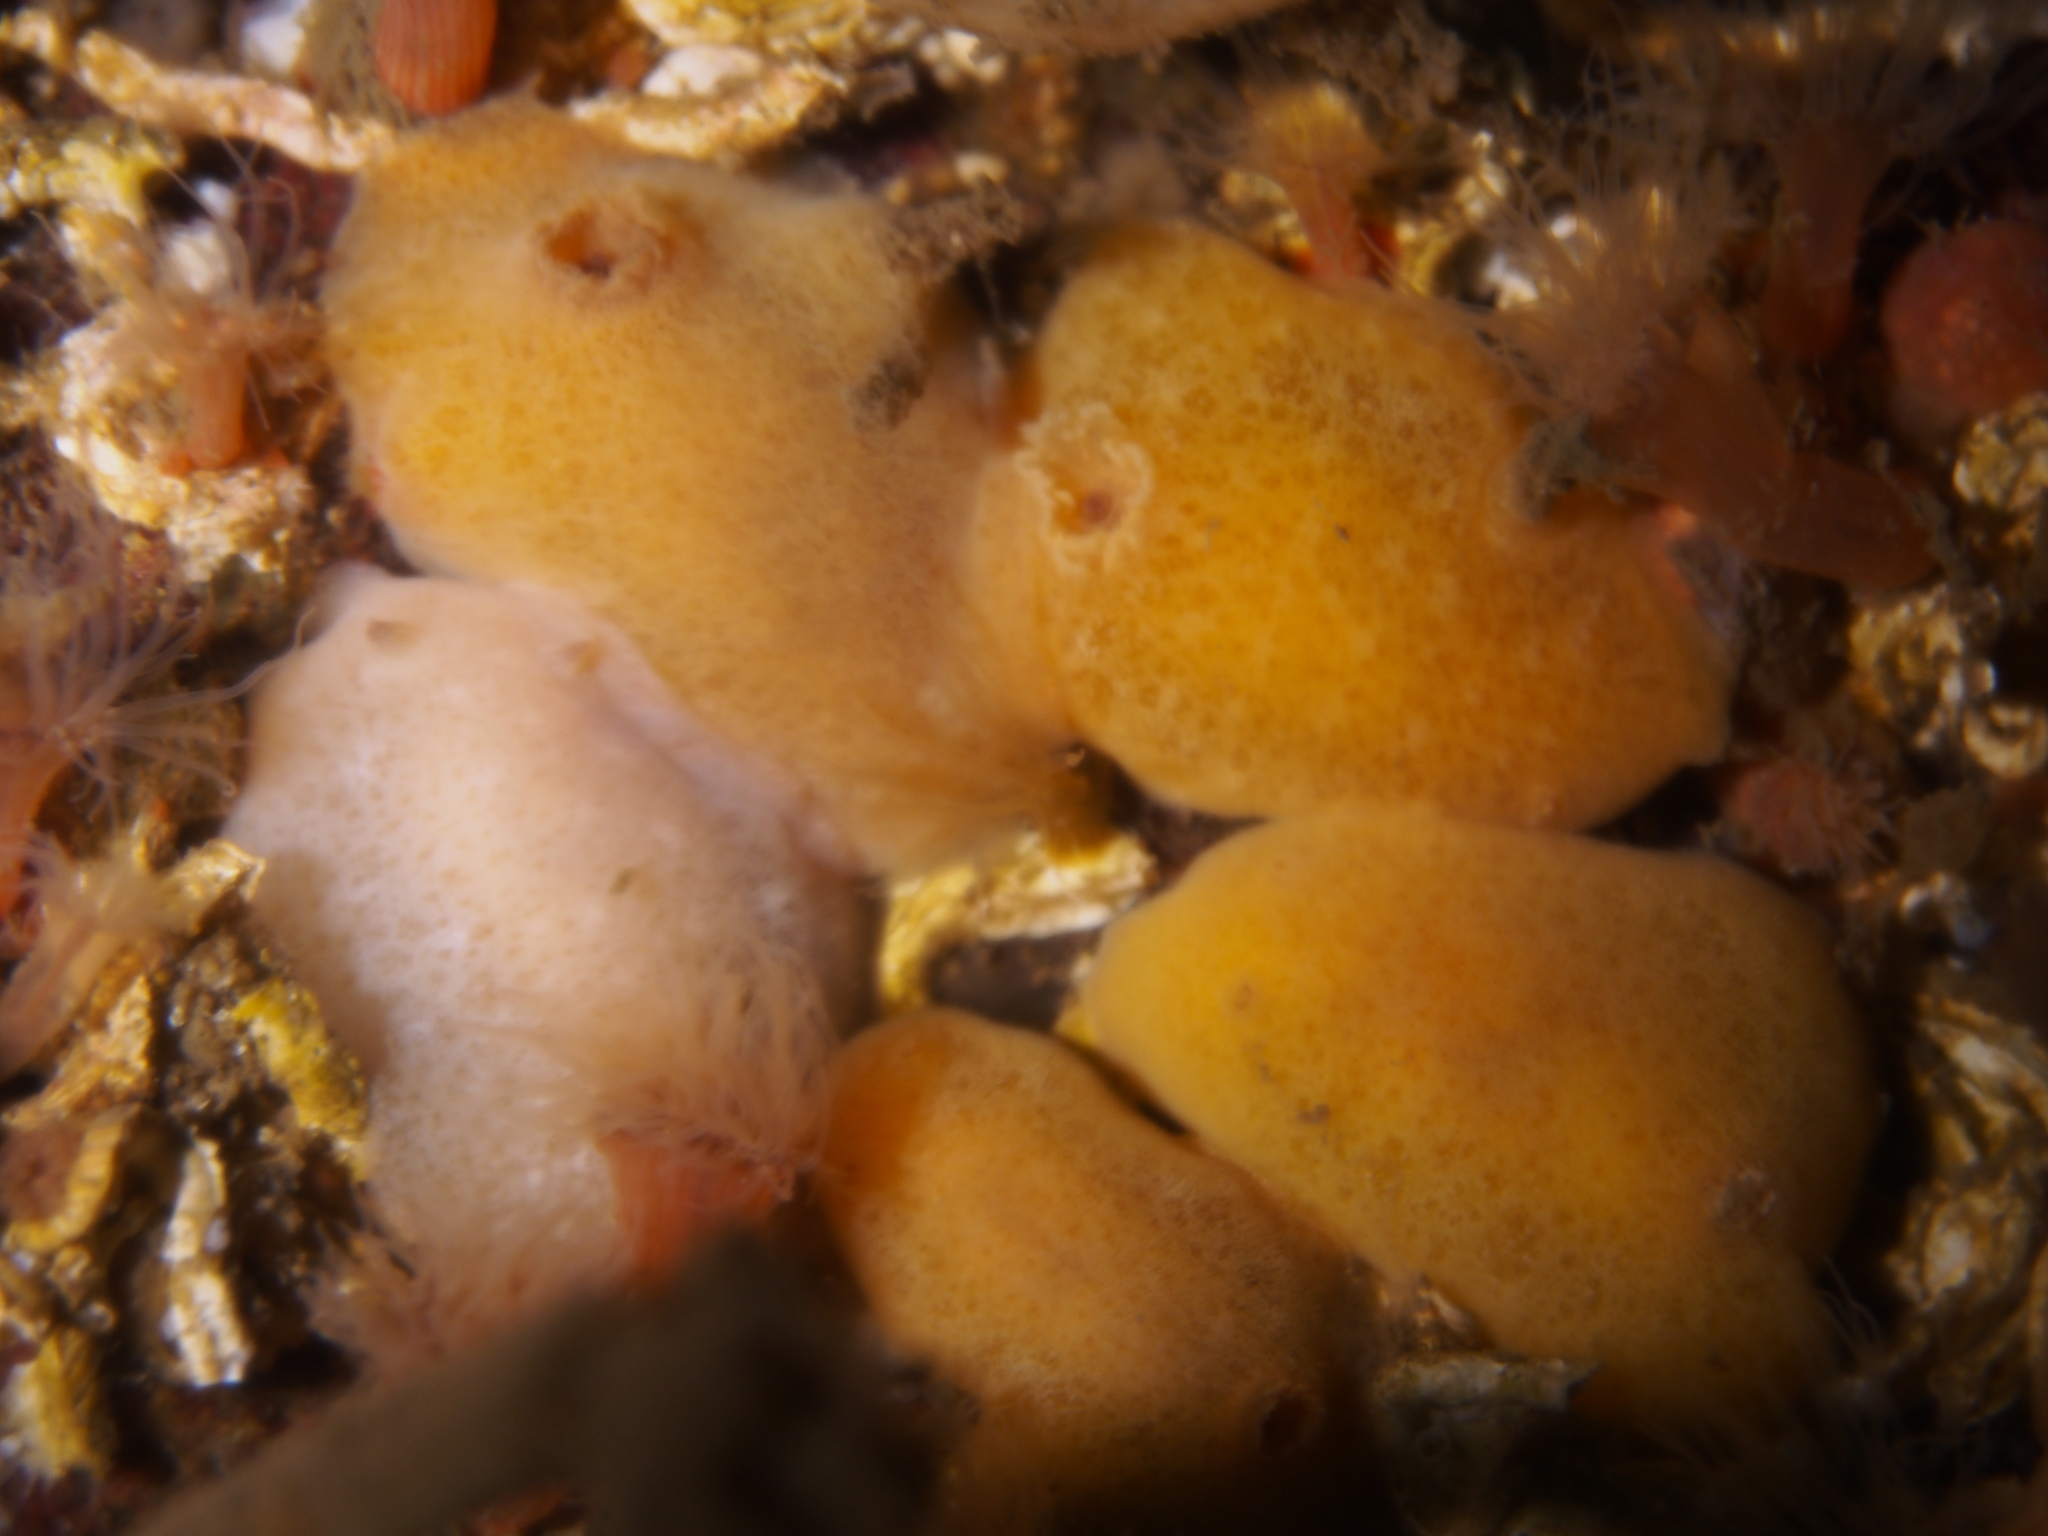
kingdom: Animalia
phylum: Mollusca
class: Gastropoda
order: Nudibranchia
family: Discodorididae
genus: Jorunna
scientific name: Jorunna tomentosa
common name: Grey sea slug
